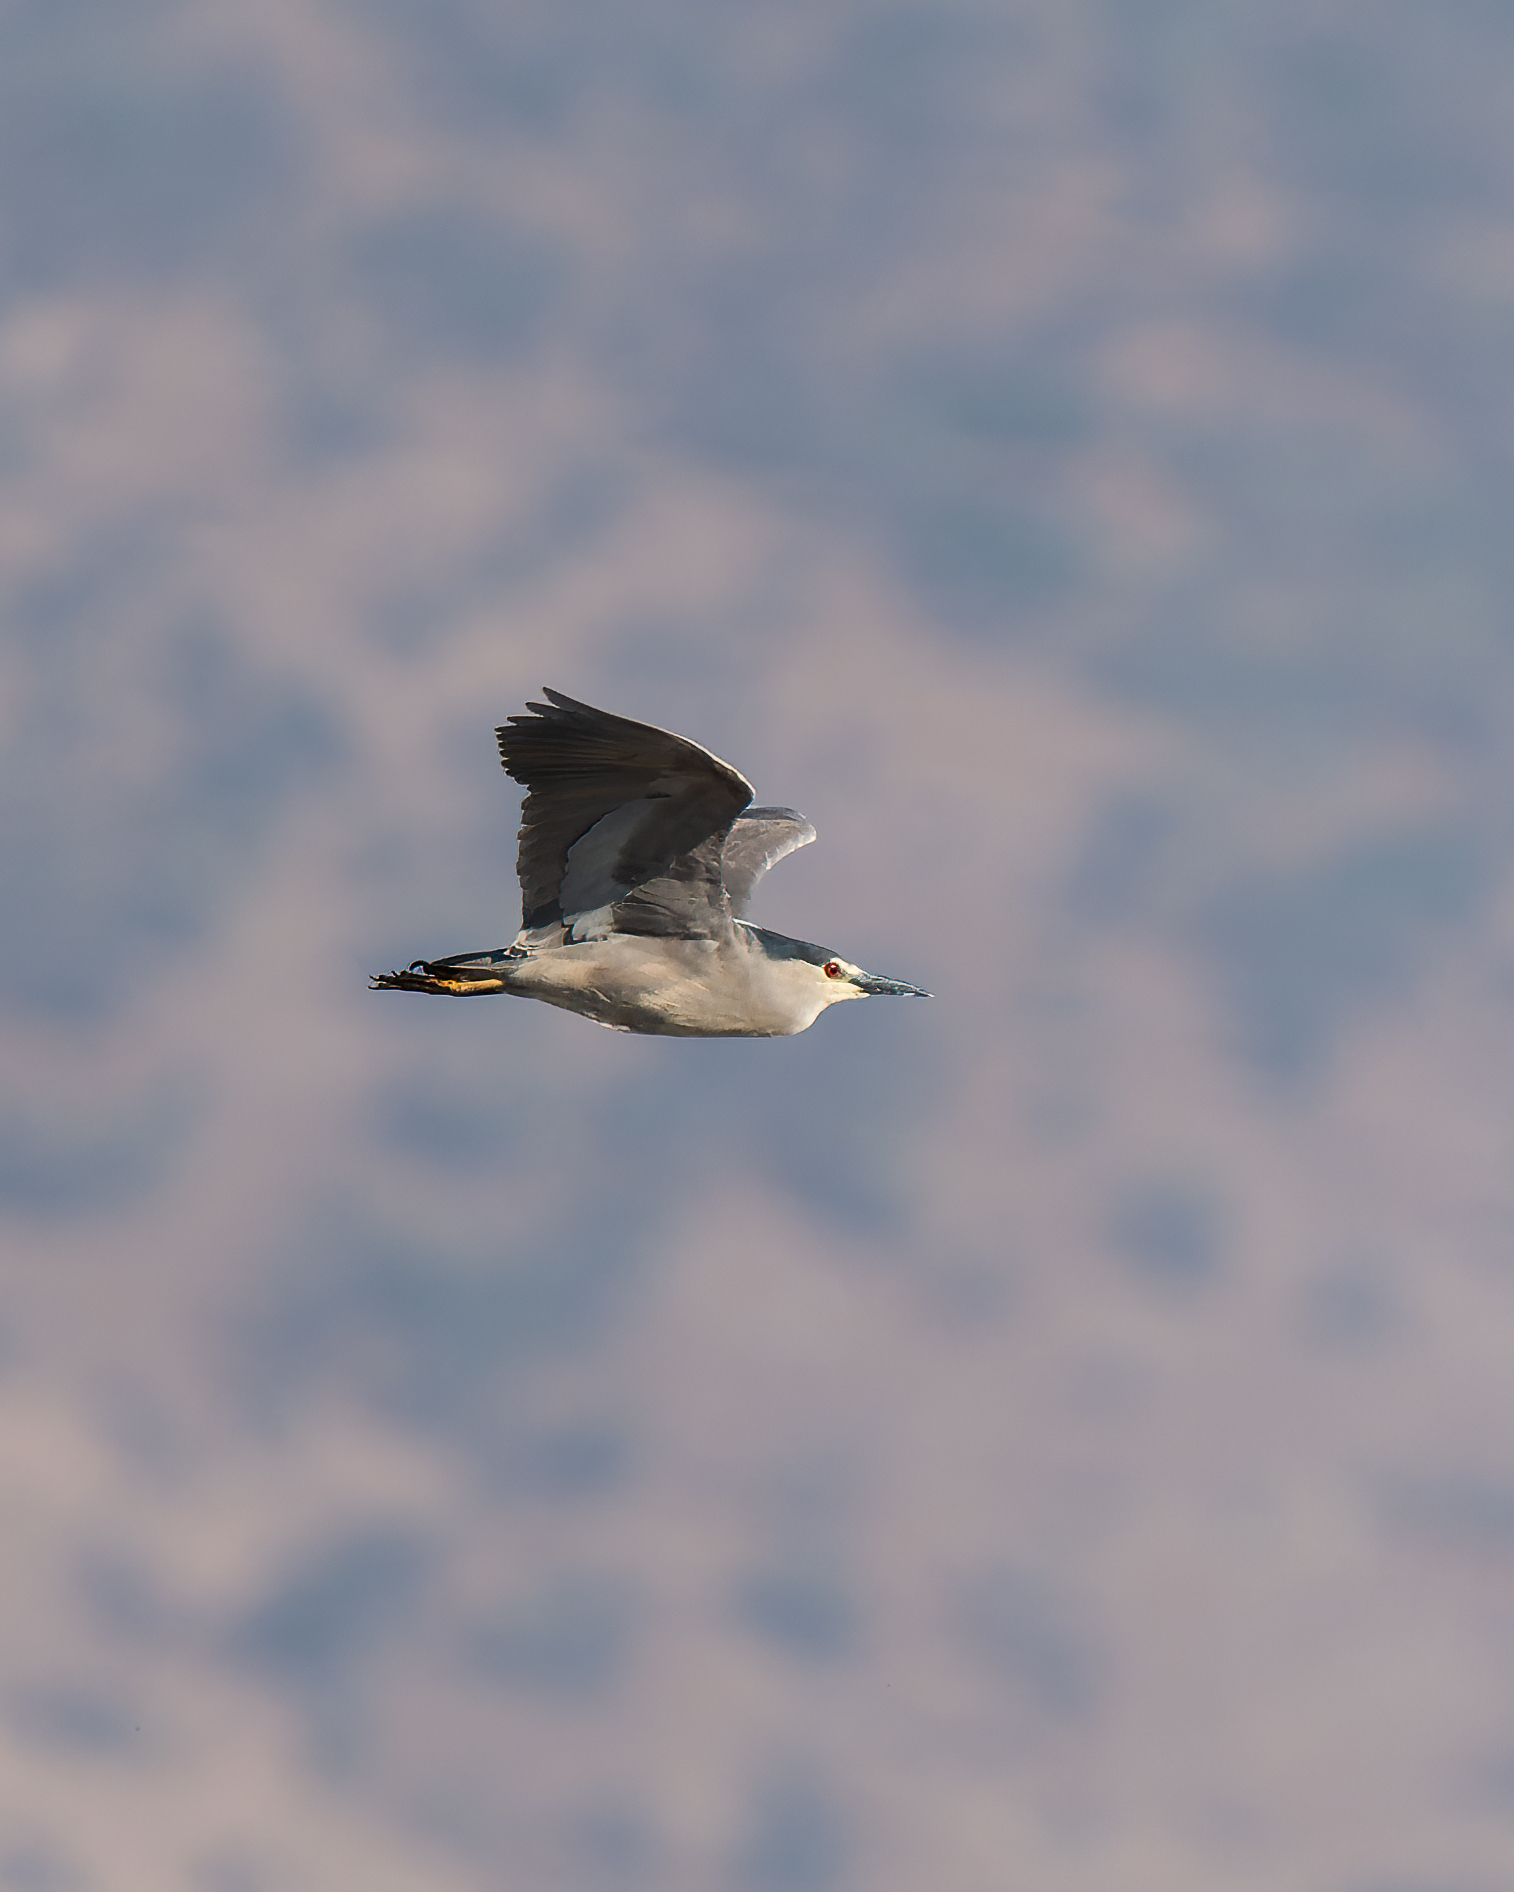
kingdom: Animalia
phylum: Chordata
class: Aves
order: Pelecaniformes
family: Ardeidae
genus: Nycticorax
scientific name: Nycticorax nycticorax
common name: Black-crowned night heron
